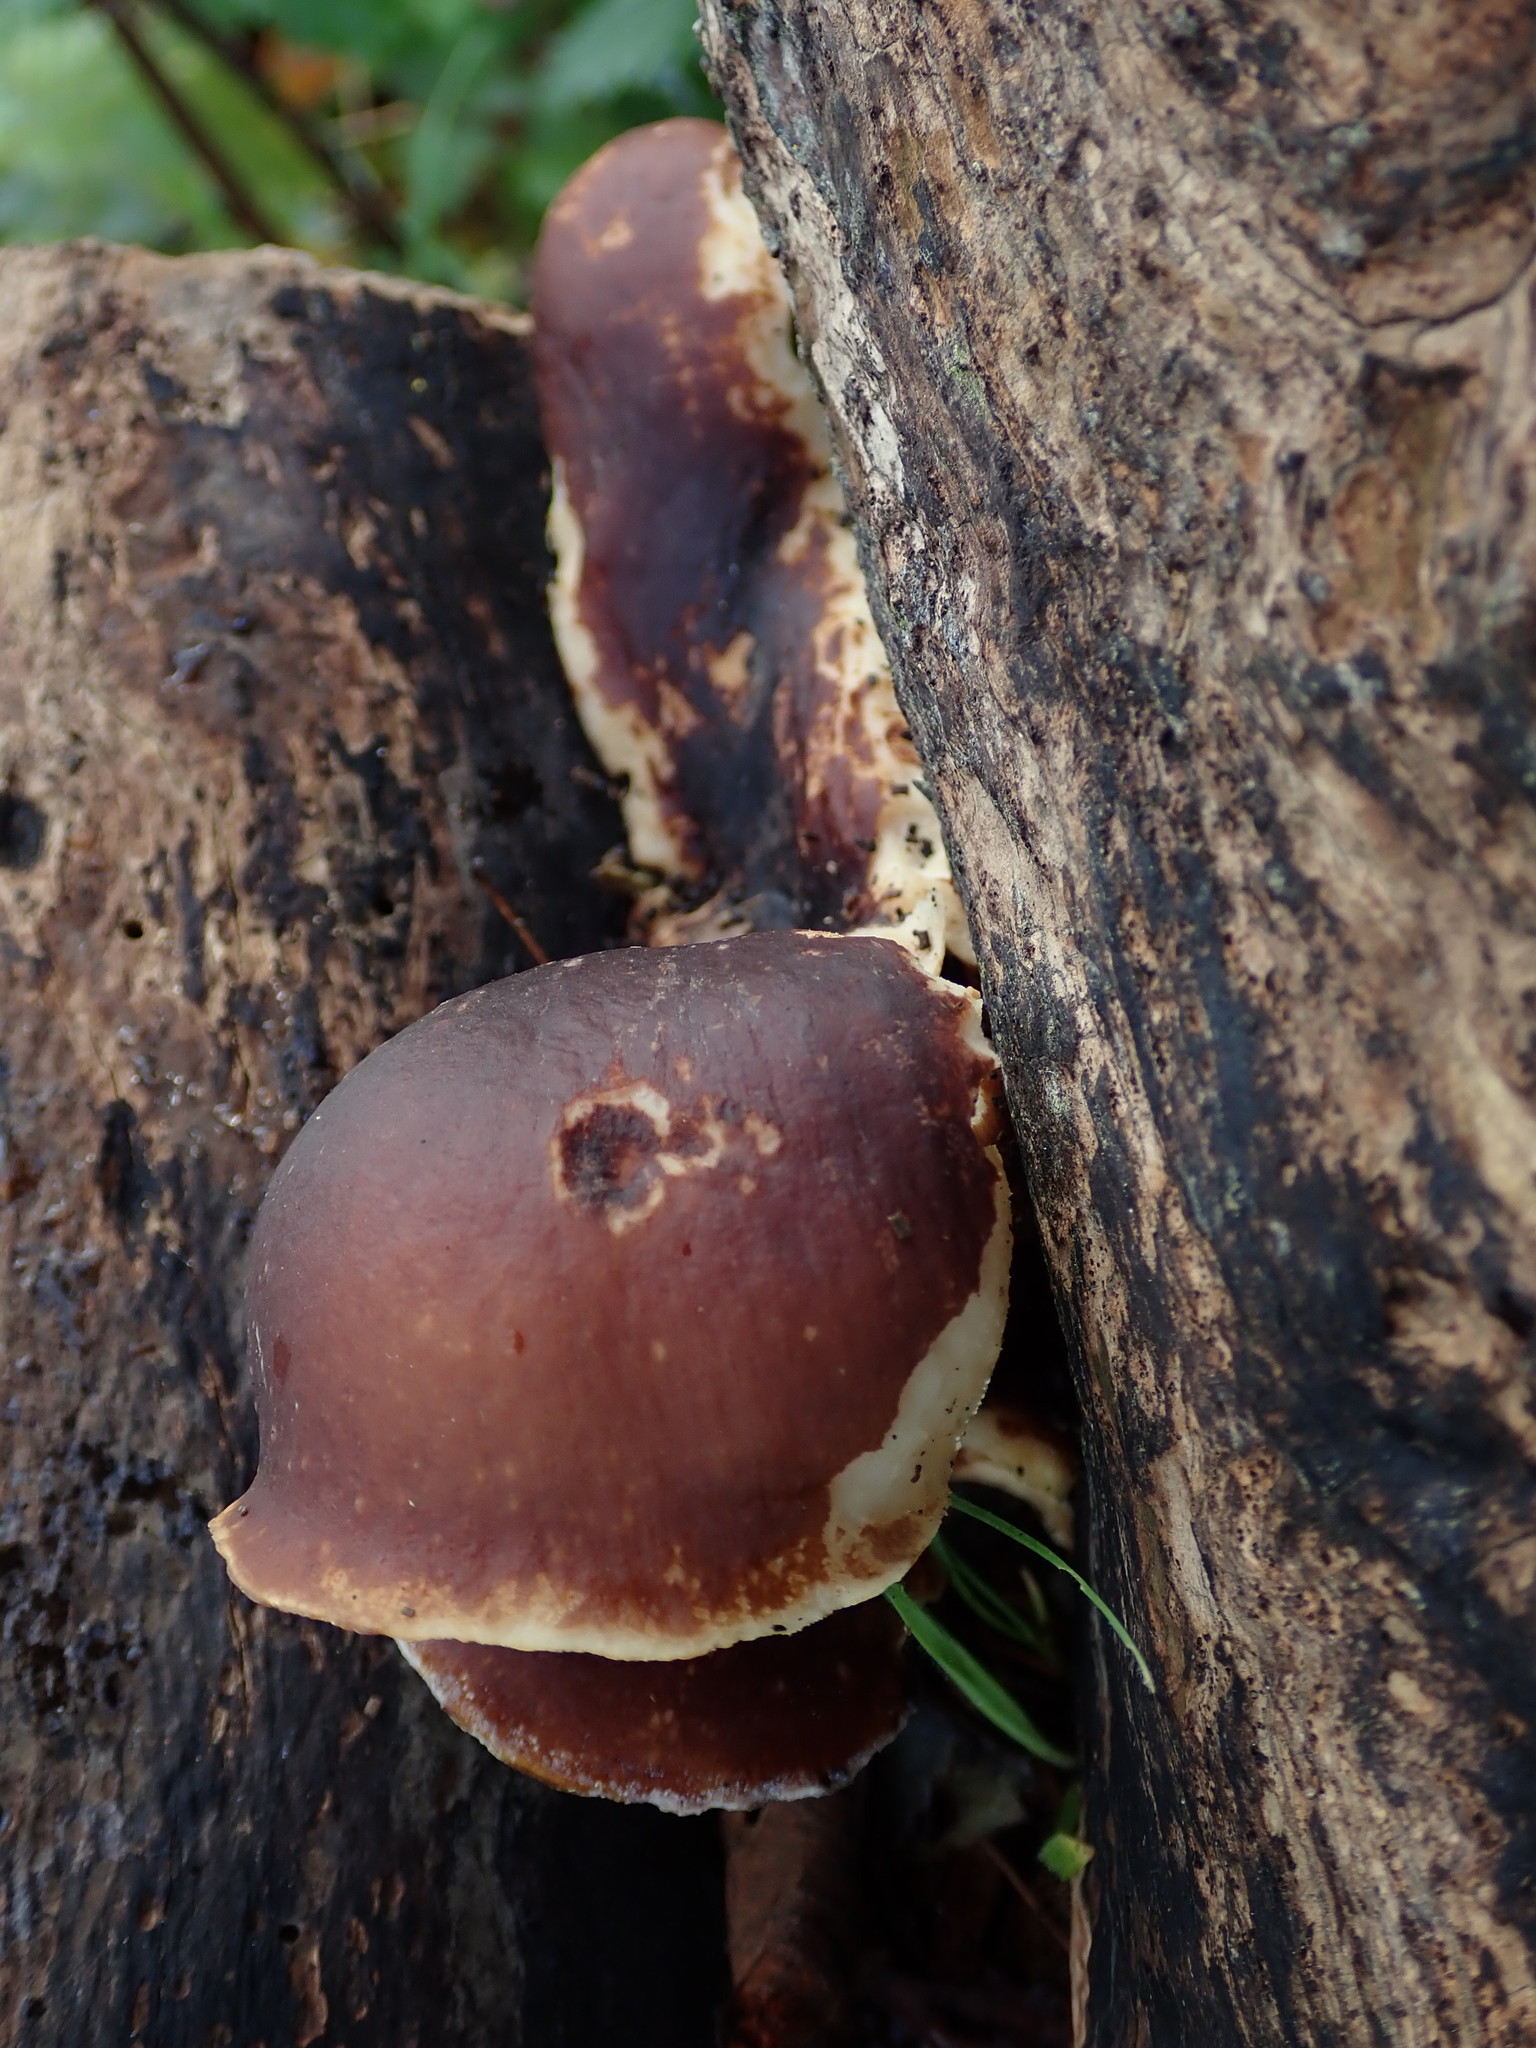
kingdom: Fungi
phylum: Basidiomycota
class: Agaricomycetes
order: Polyporales
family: Polyporaceae
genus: Picipes
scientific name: Picipes badius
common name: Bay polypore
